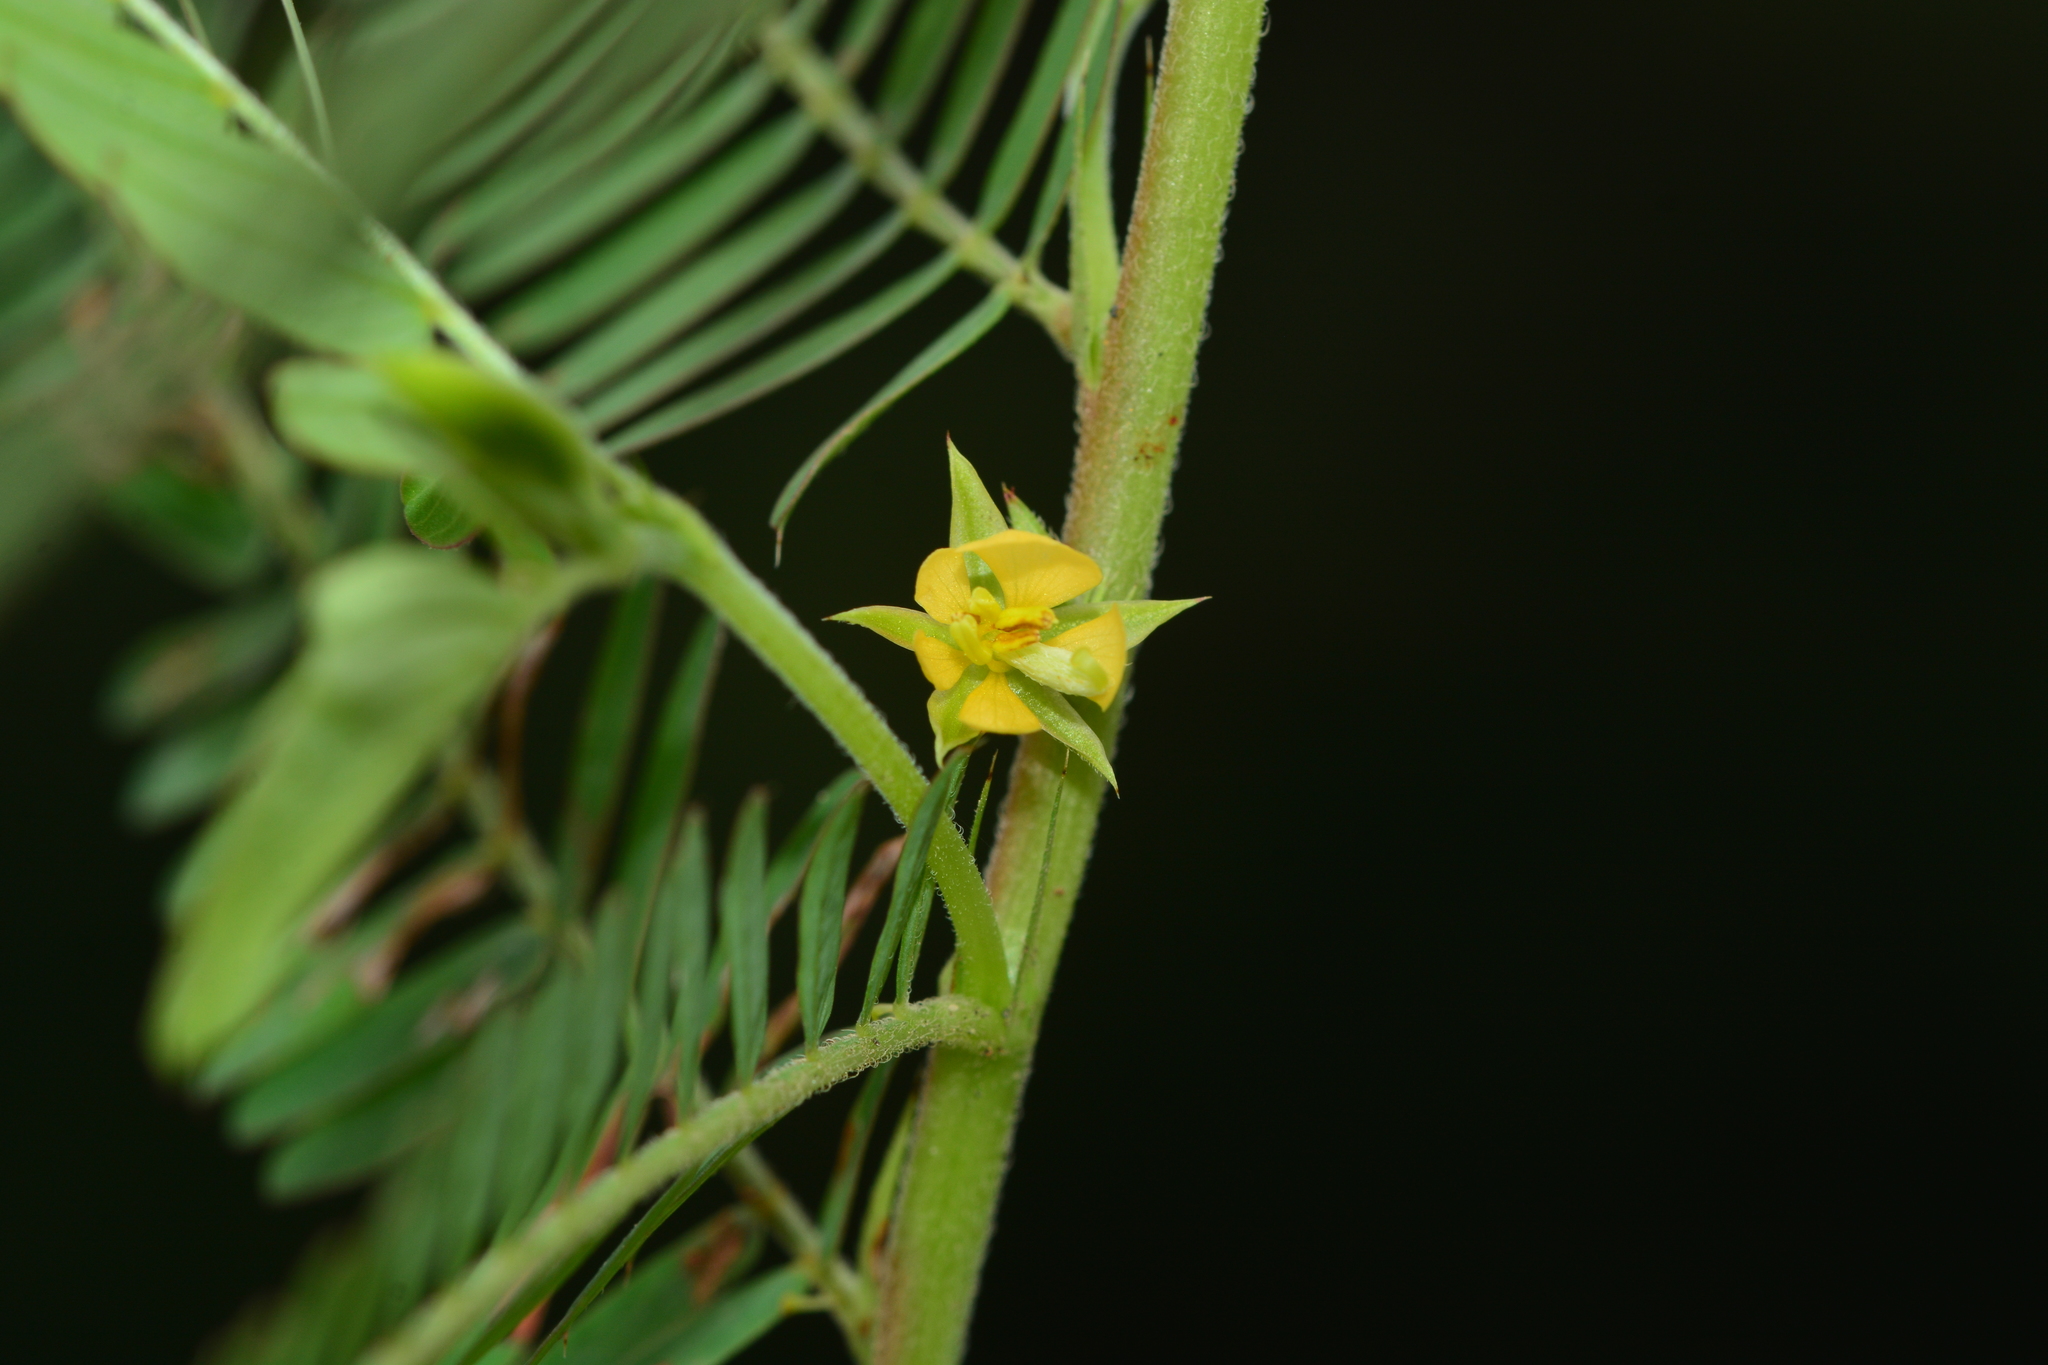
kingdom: Plantae
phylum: Tracheophyta
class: Magnoliopsida
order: Fabales
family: Fabaceae
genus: Chamaecrista
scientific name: Chamaecrista pumila
